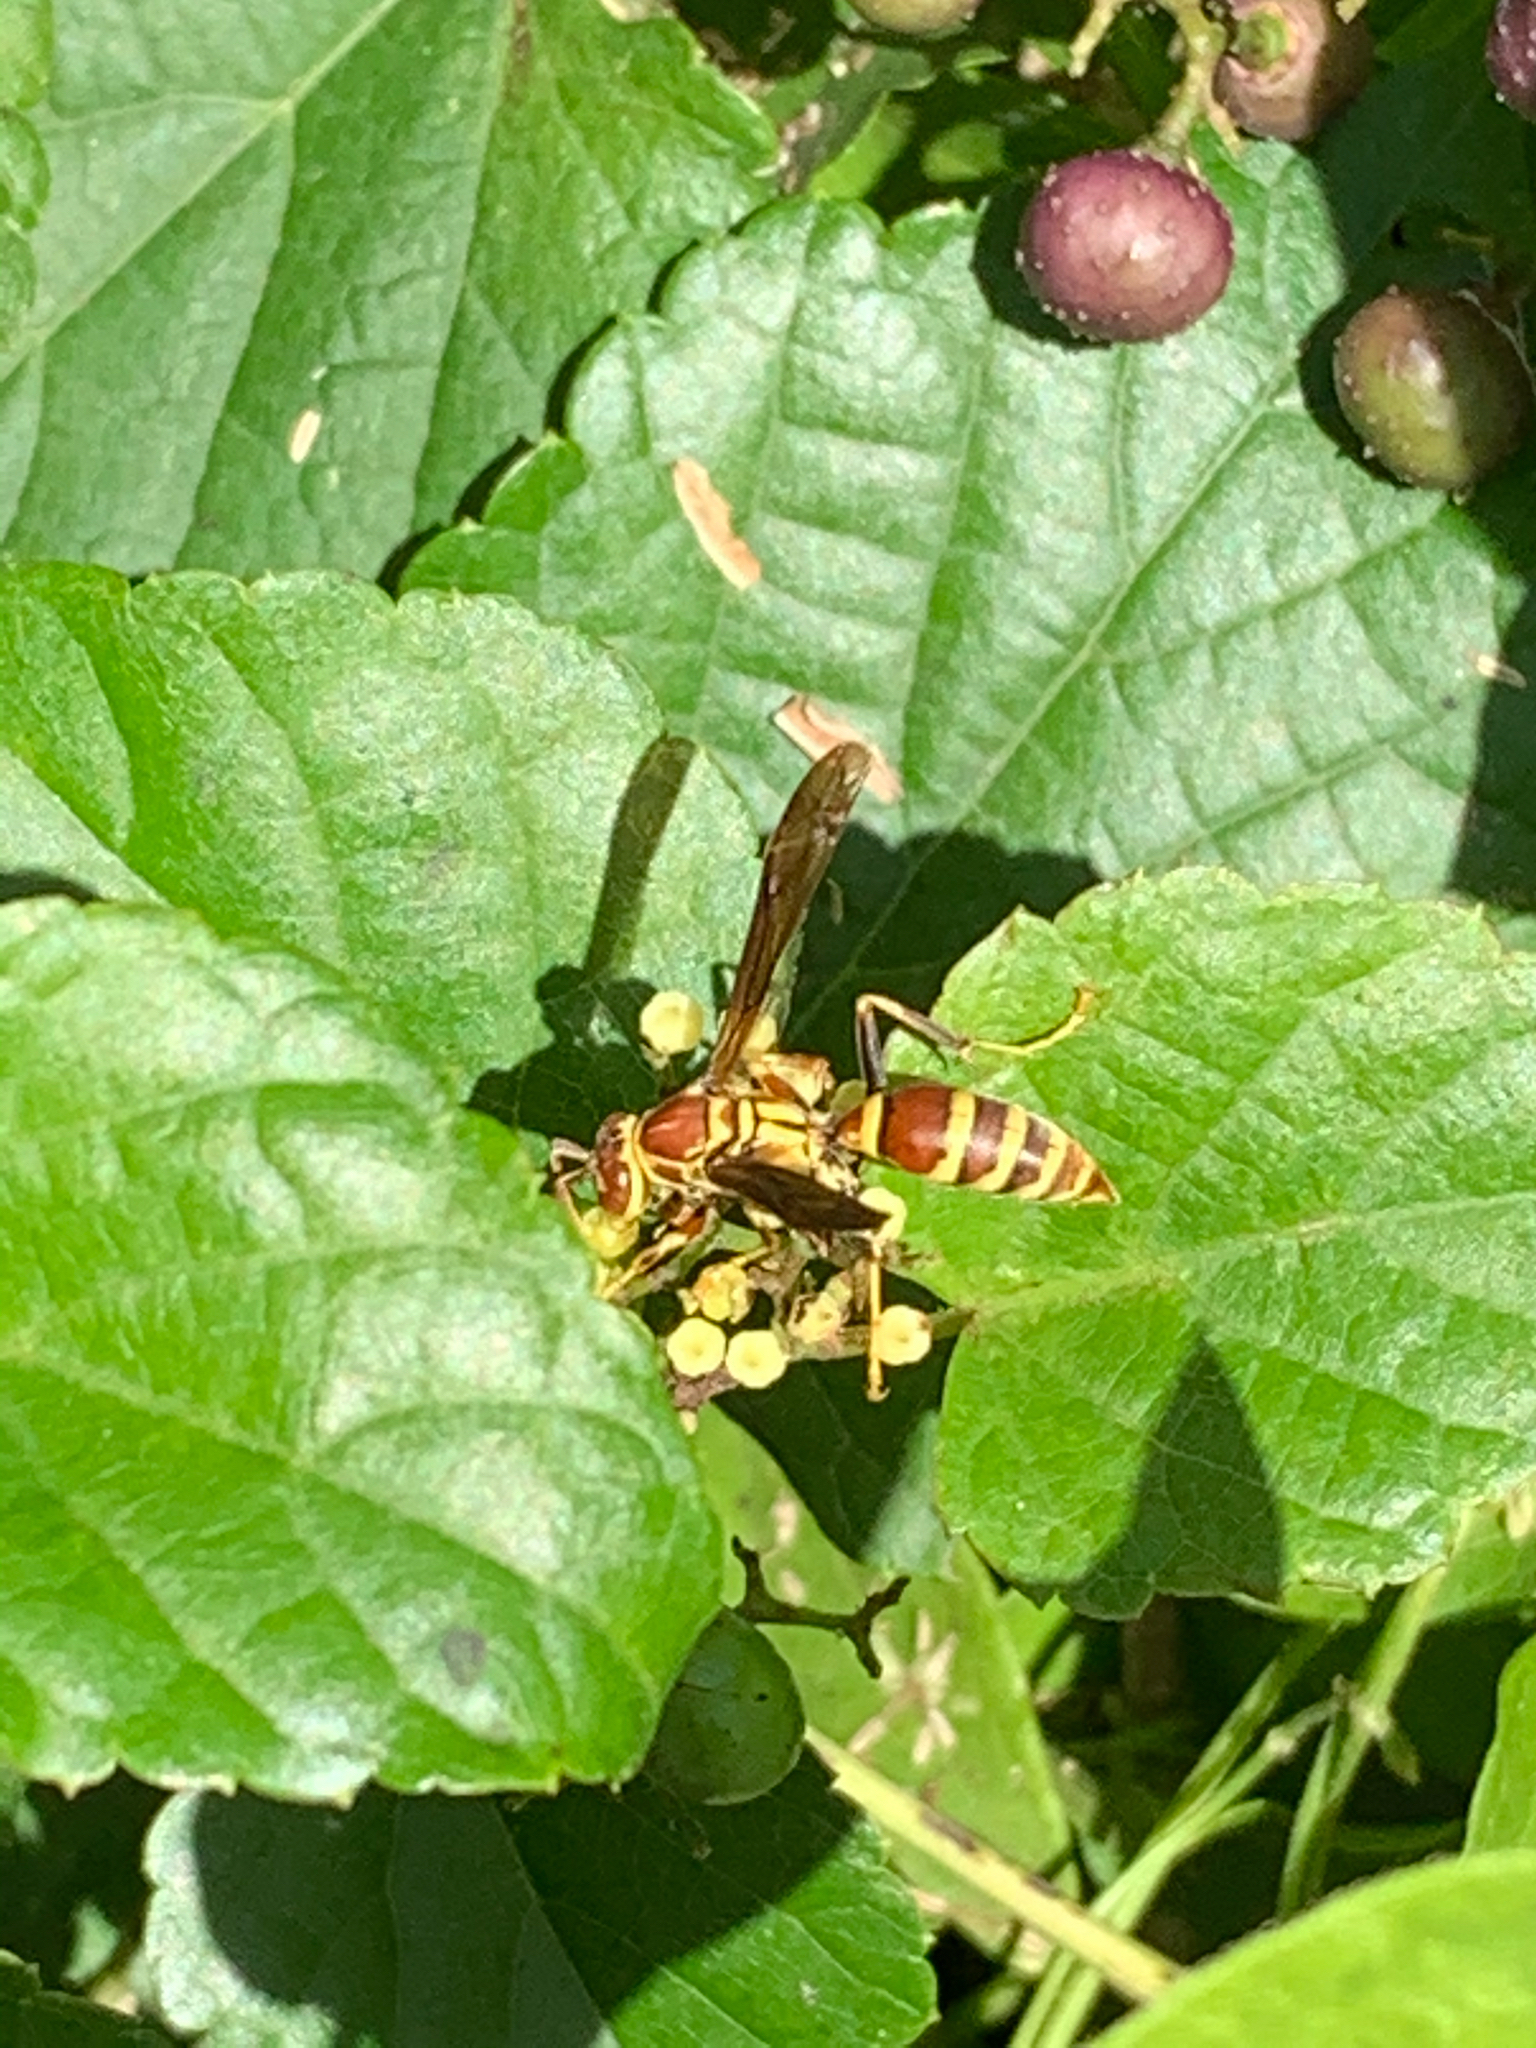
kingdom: Animalia
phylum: Arthropoda
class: Insecta
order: Hymenoptera
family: Eumenidae
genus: Polistes
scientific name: Polistes exclamans
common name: Paper wasp
